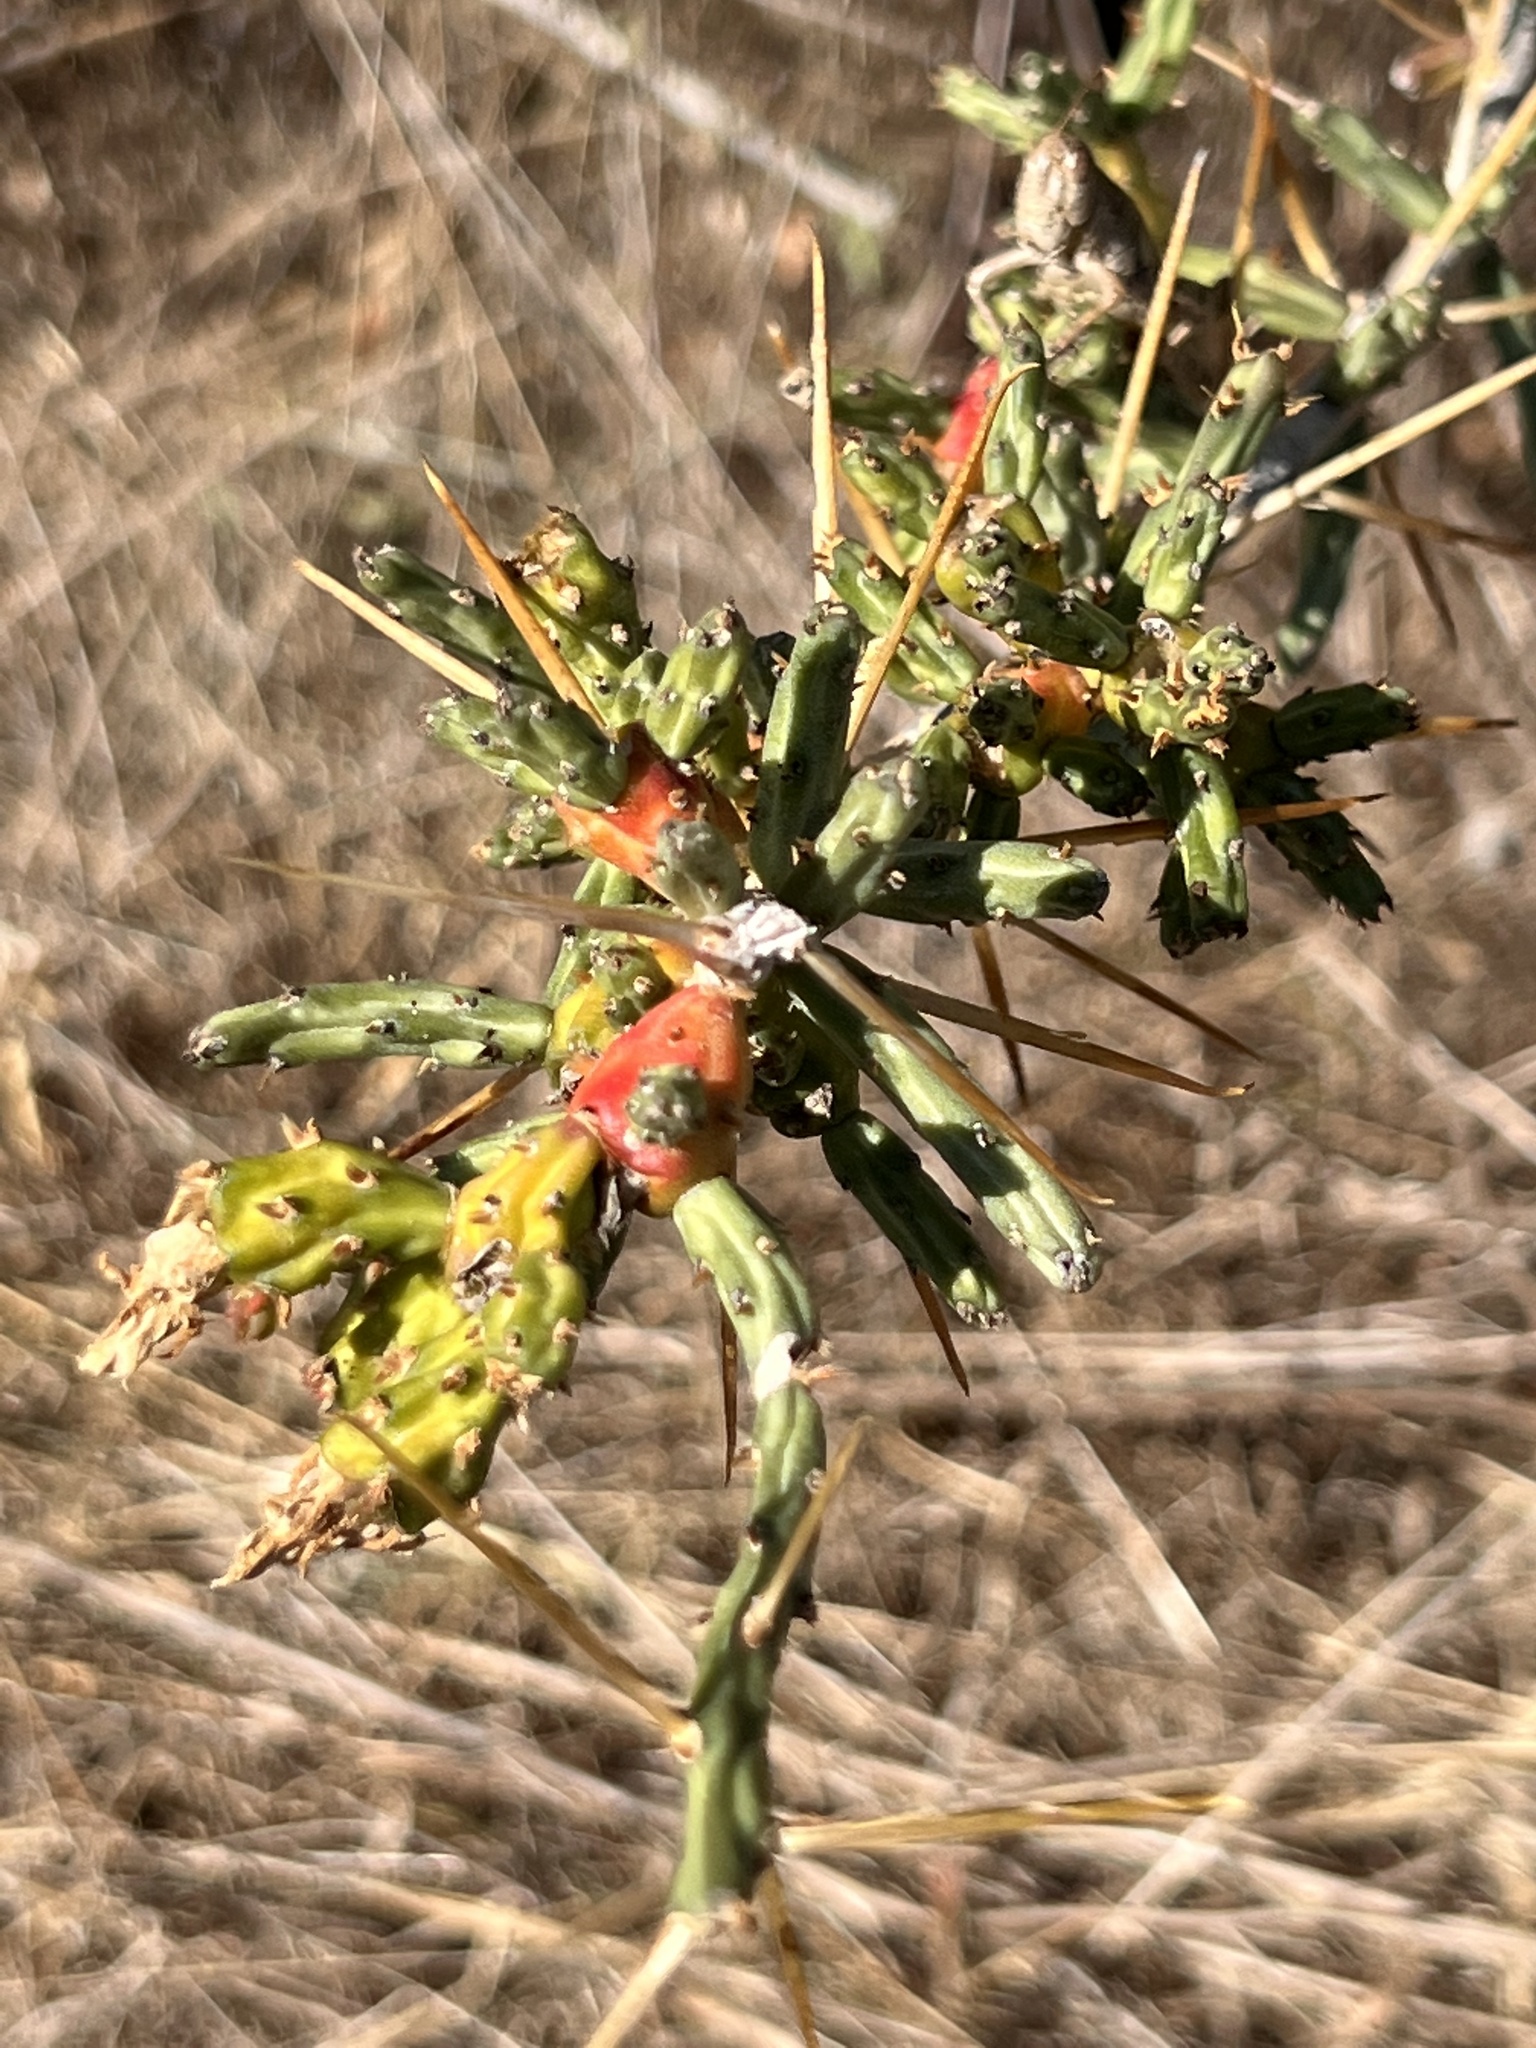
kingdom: Plantae
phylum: Tracheophyta
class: Magnoliopsida
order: Caryophyllales
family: Cactaceae
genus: Cylindropuntia
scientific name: Cylindropuntia leptocaulis
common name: Christmas cactus
